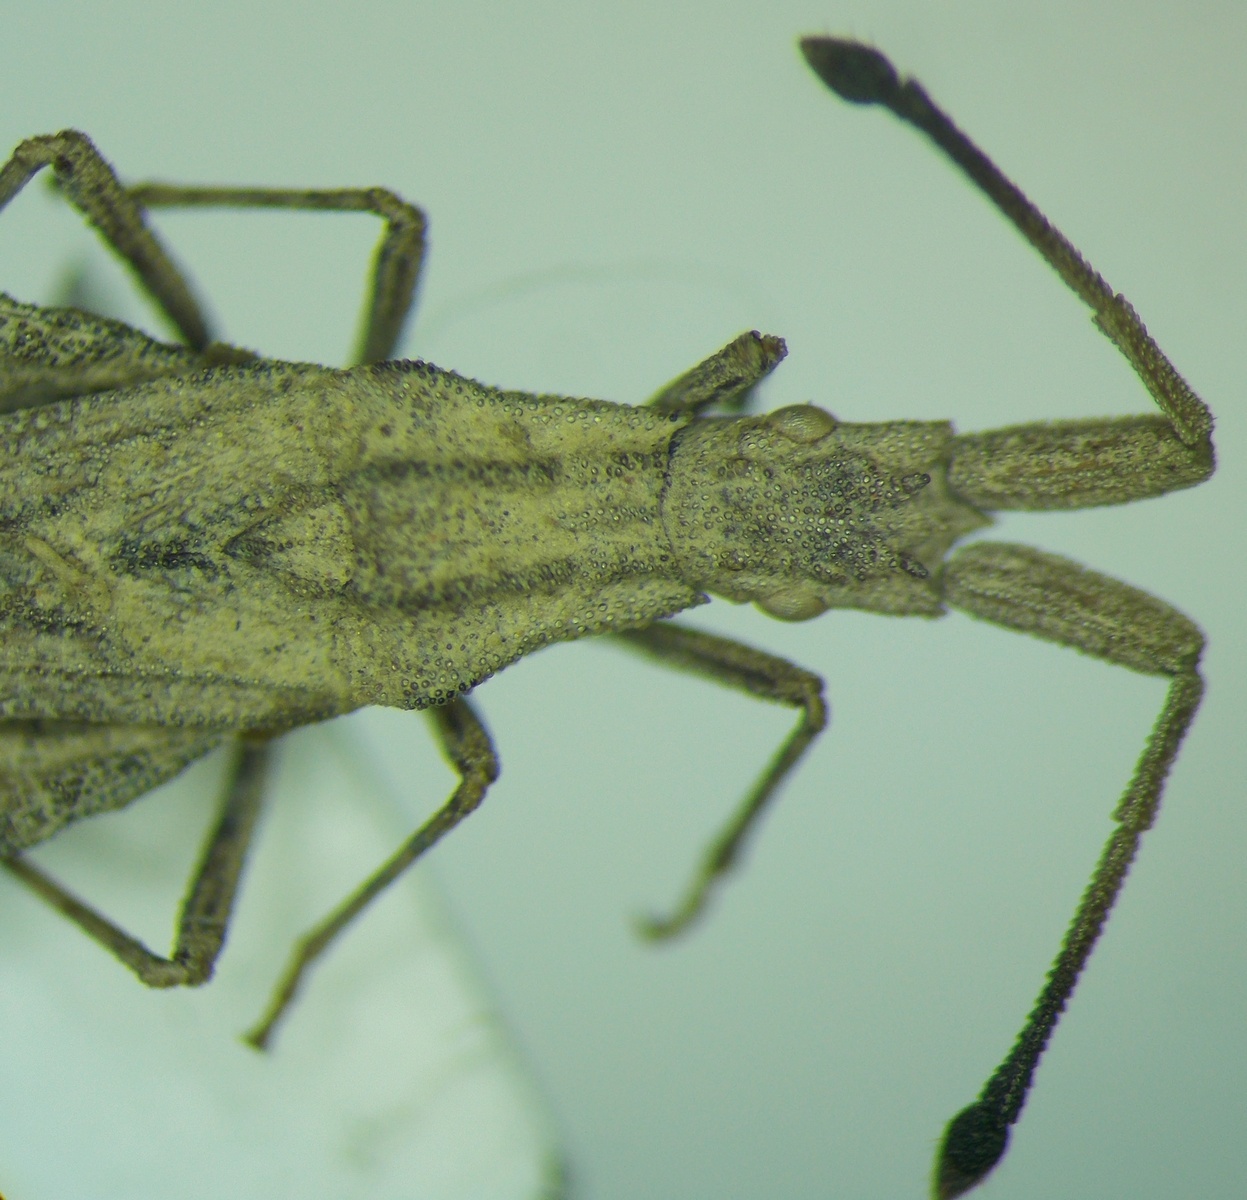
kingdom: Animalia
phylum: Arthropoda
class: Insecta
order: Hemiptera
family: Coreidae
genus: Spathocera
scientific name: Spathocera obscura
